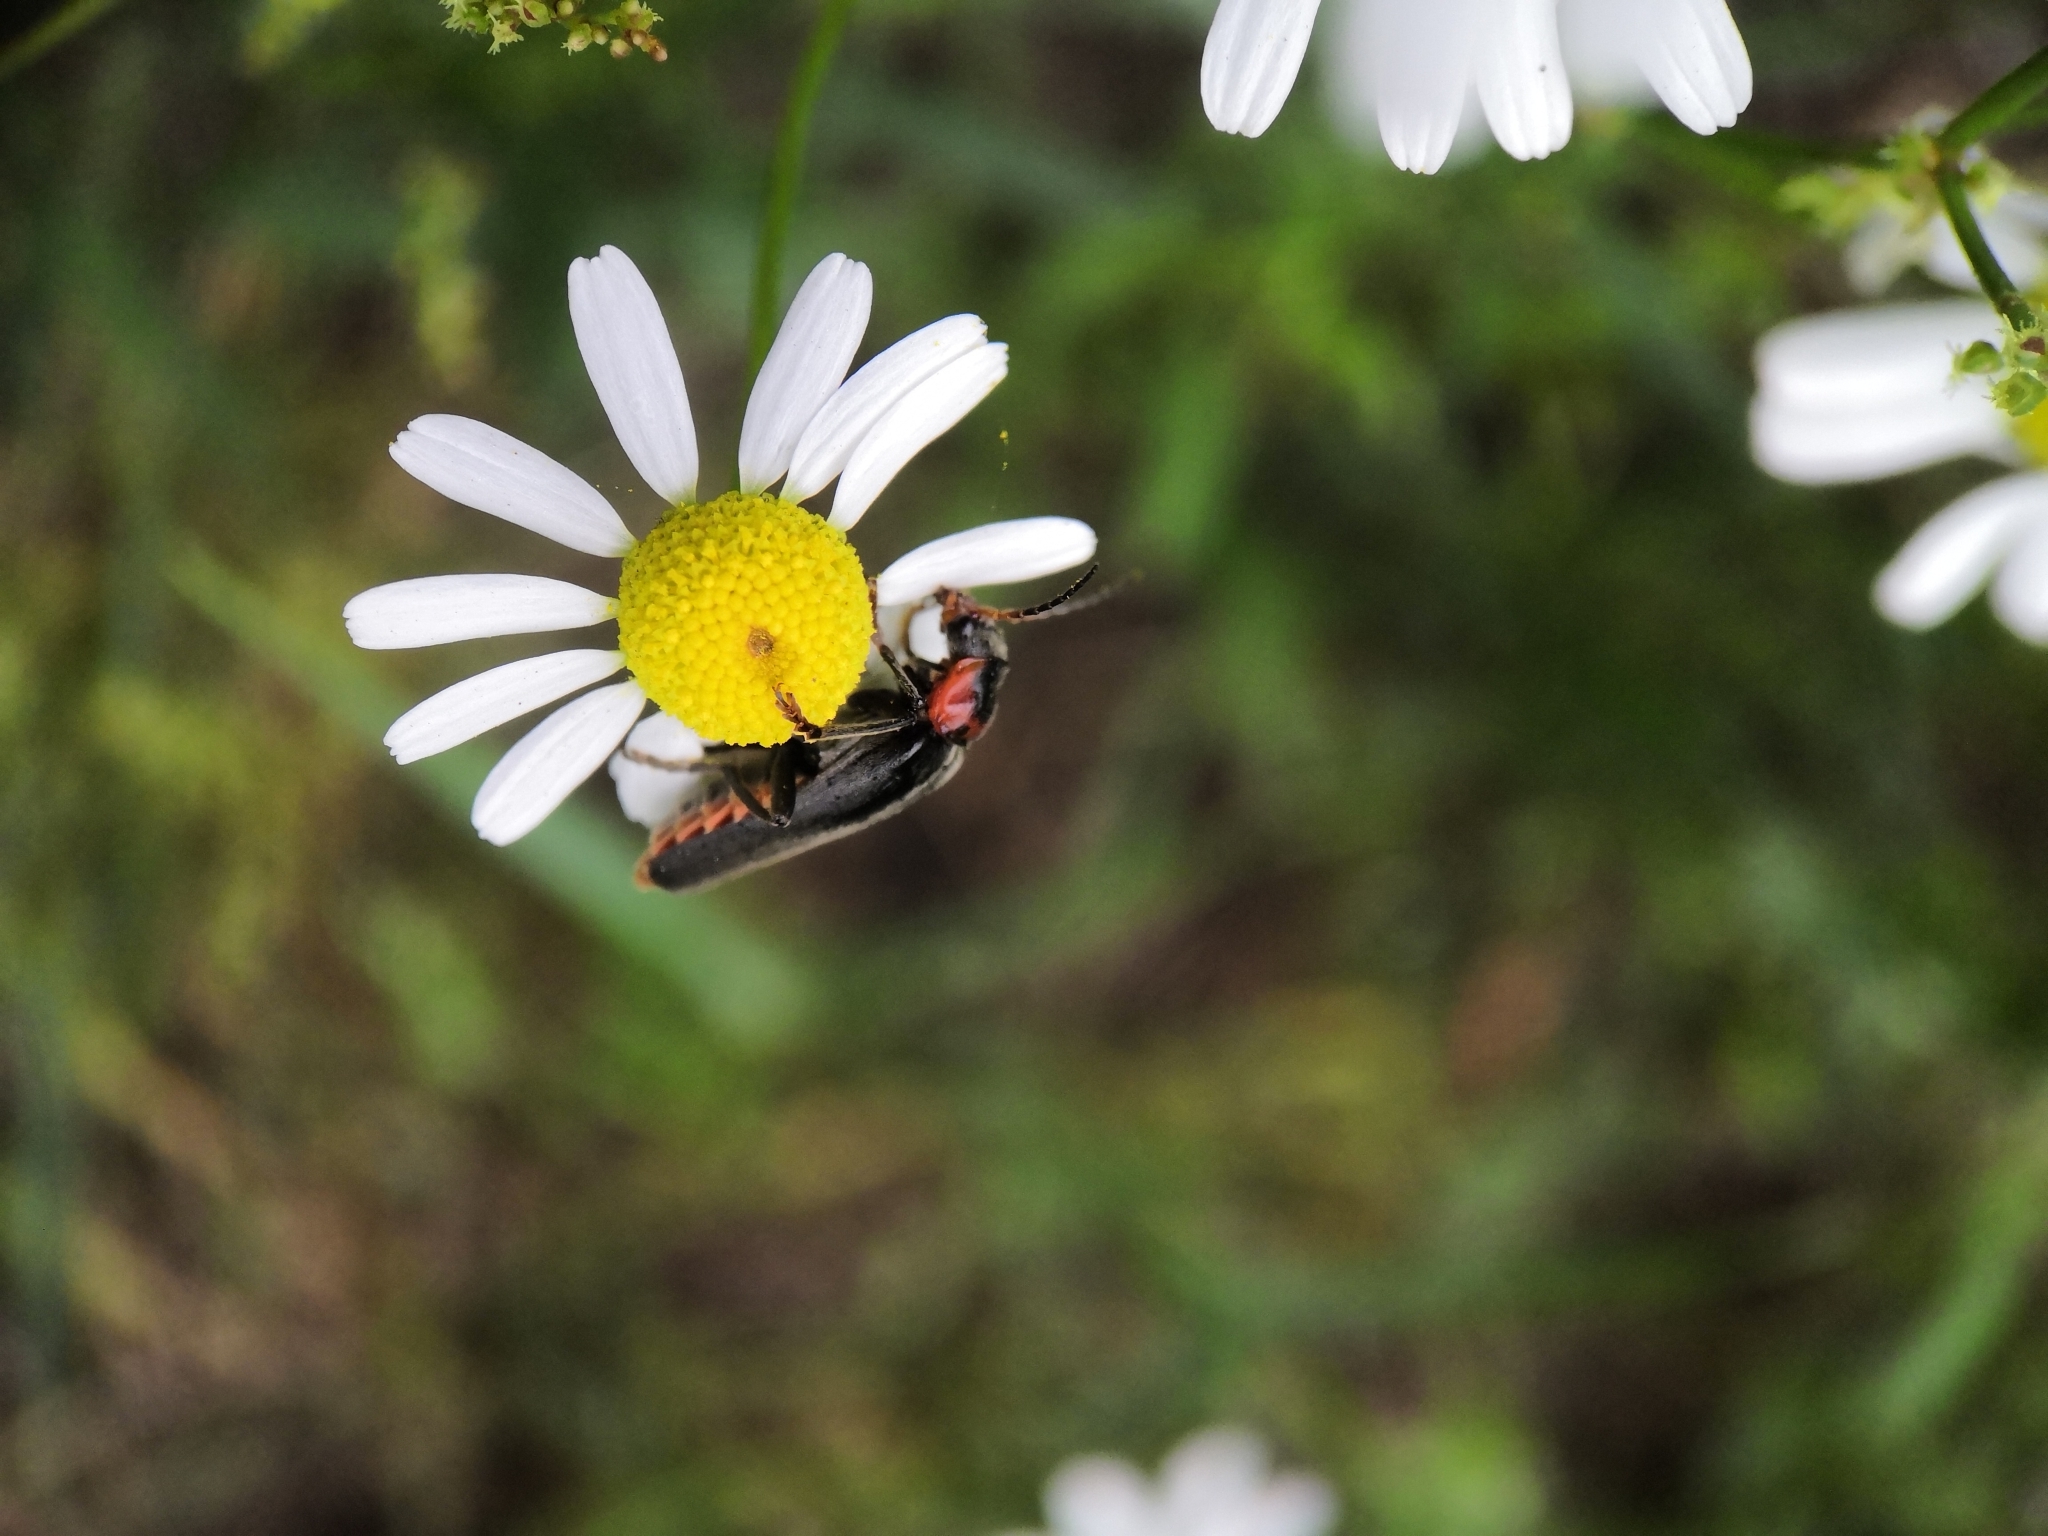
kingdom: Animalia
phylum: Arthropoda
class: Insecta
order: Coleoptera
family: Cantharidae
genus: Cantharis
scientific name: Cantharis fusca
